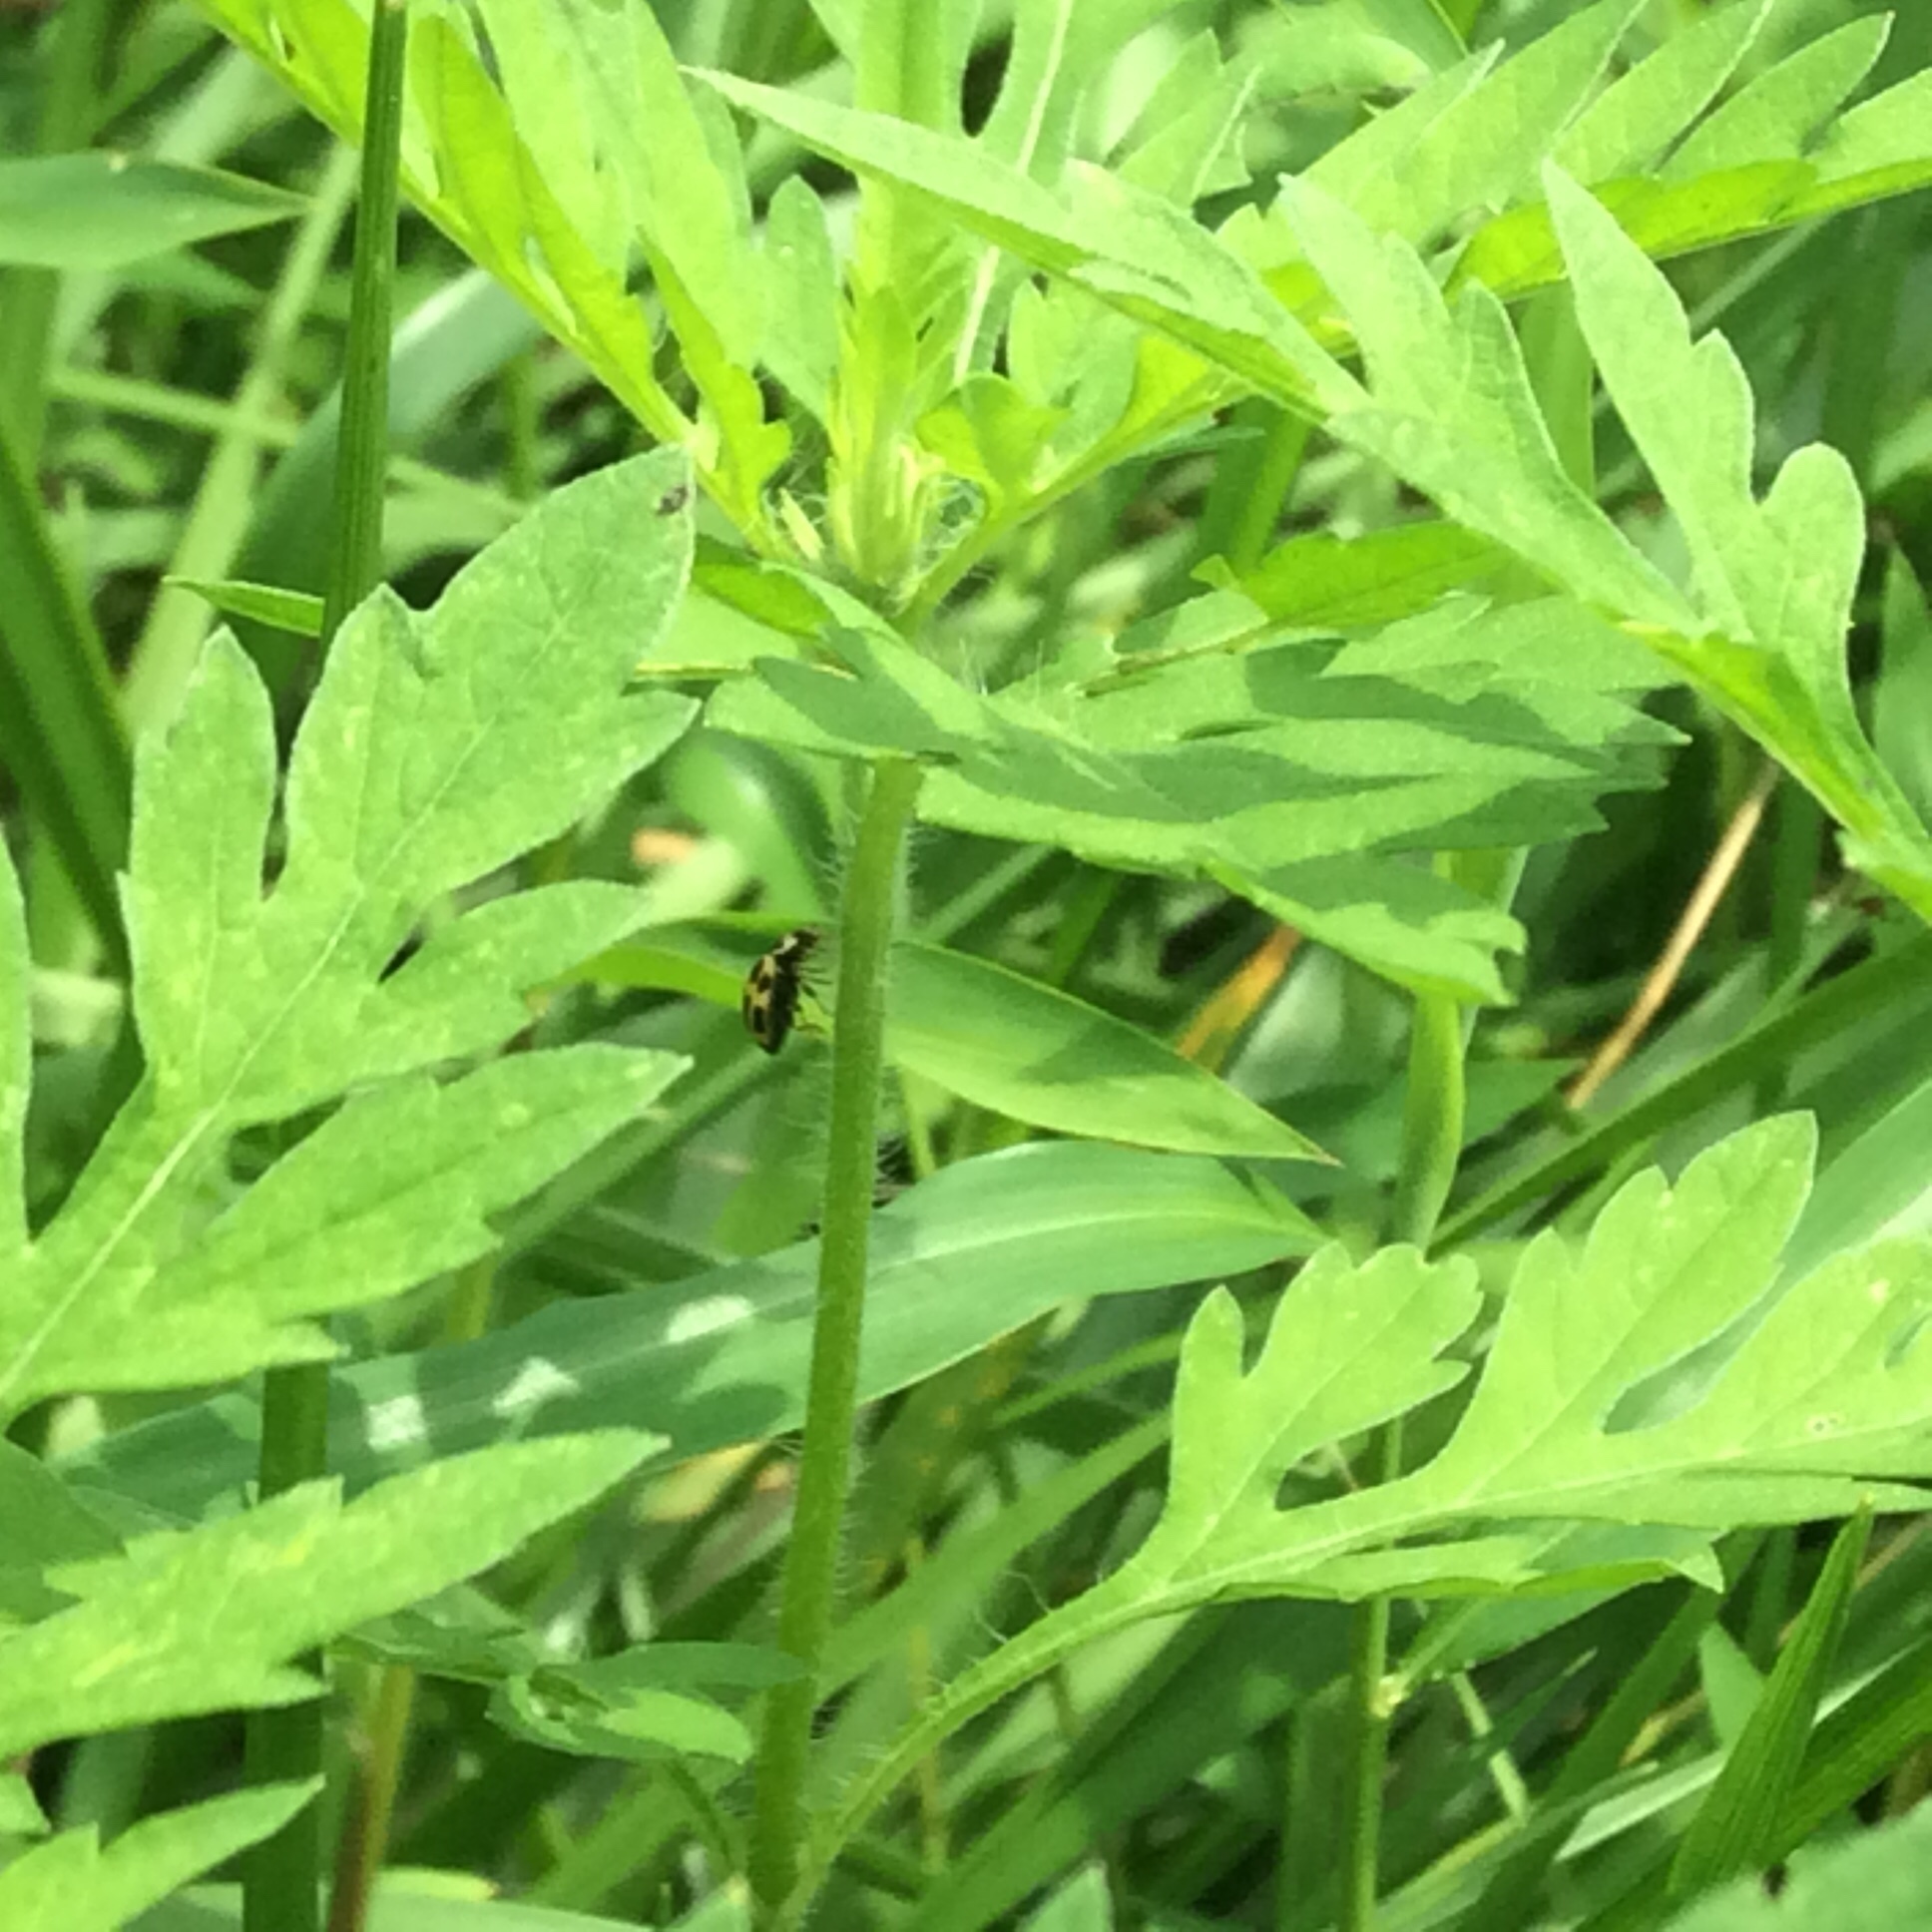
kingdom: Animalia
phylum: Arthropoda
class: Insecta
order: Coleoptera
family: Coccinellidae
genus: Propylaea
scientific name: Propylaea quatuordecimpunctata
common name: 14-spotted ladybird beetle
